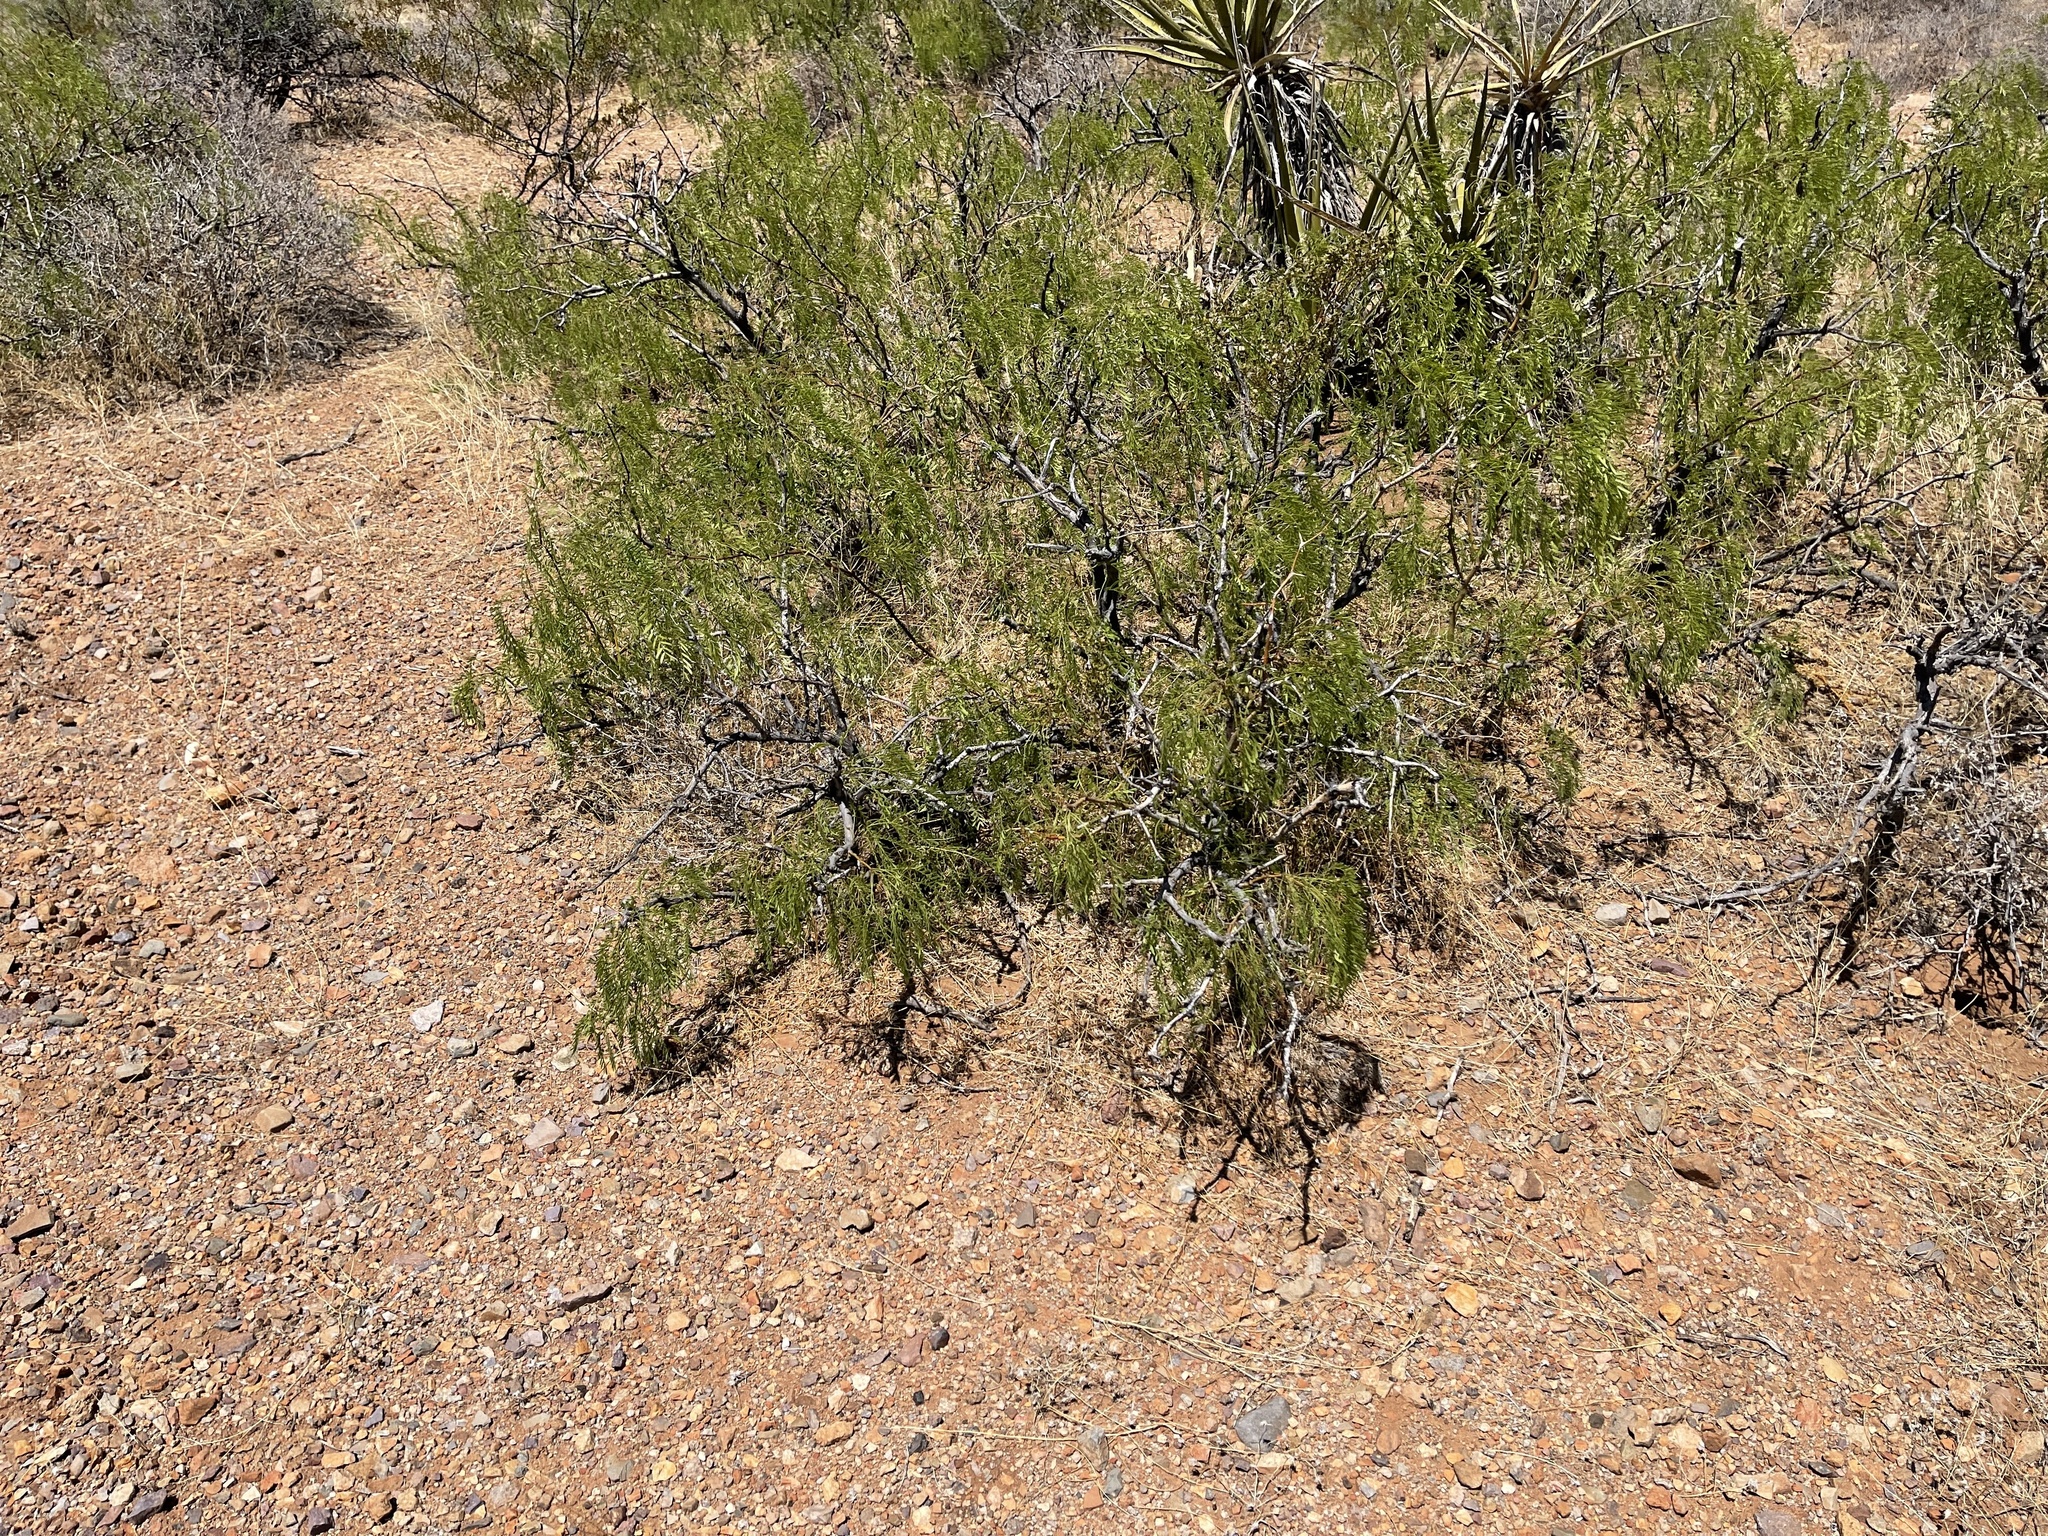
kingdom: Plantae
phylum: Tracheophyta
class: Magnoliopsida
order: Fabales
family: Fabaceae
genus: Prosopis
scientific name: Prosopis glandulosa
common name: Honey mesquite
